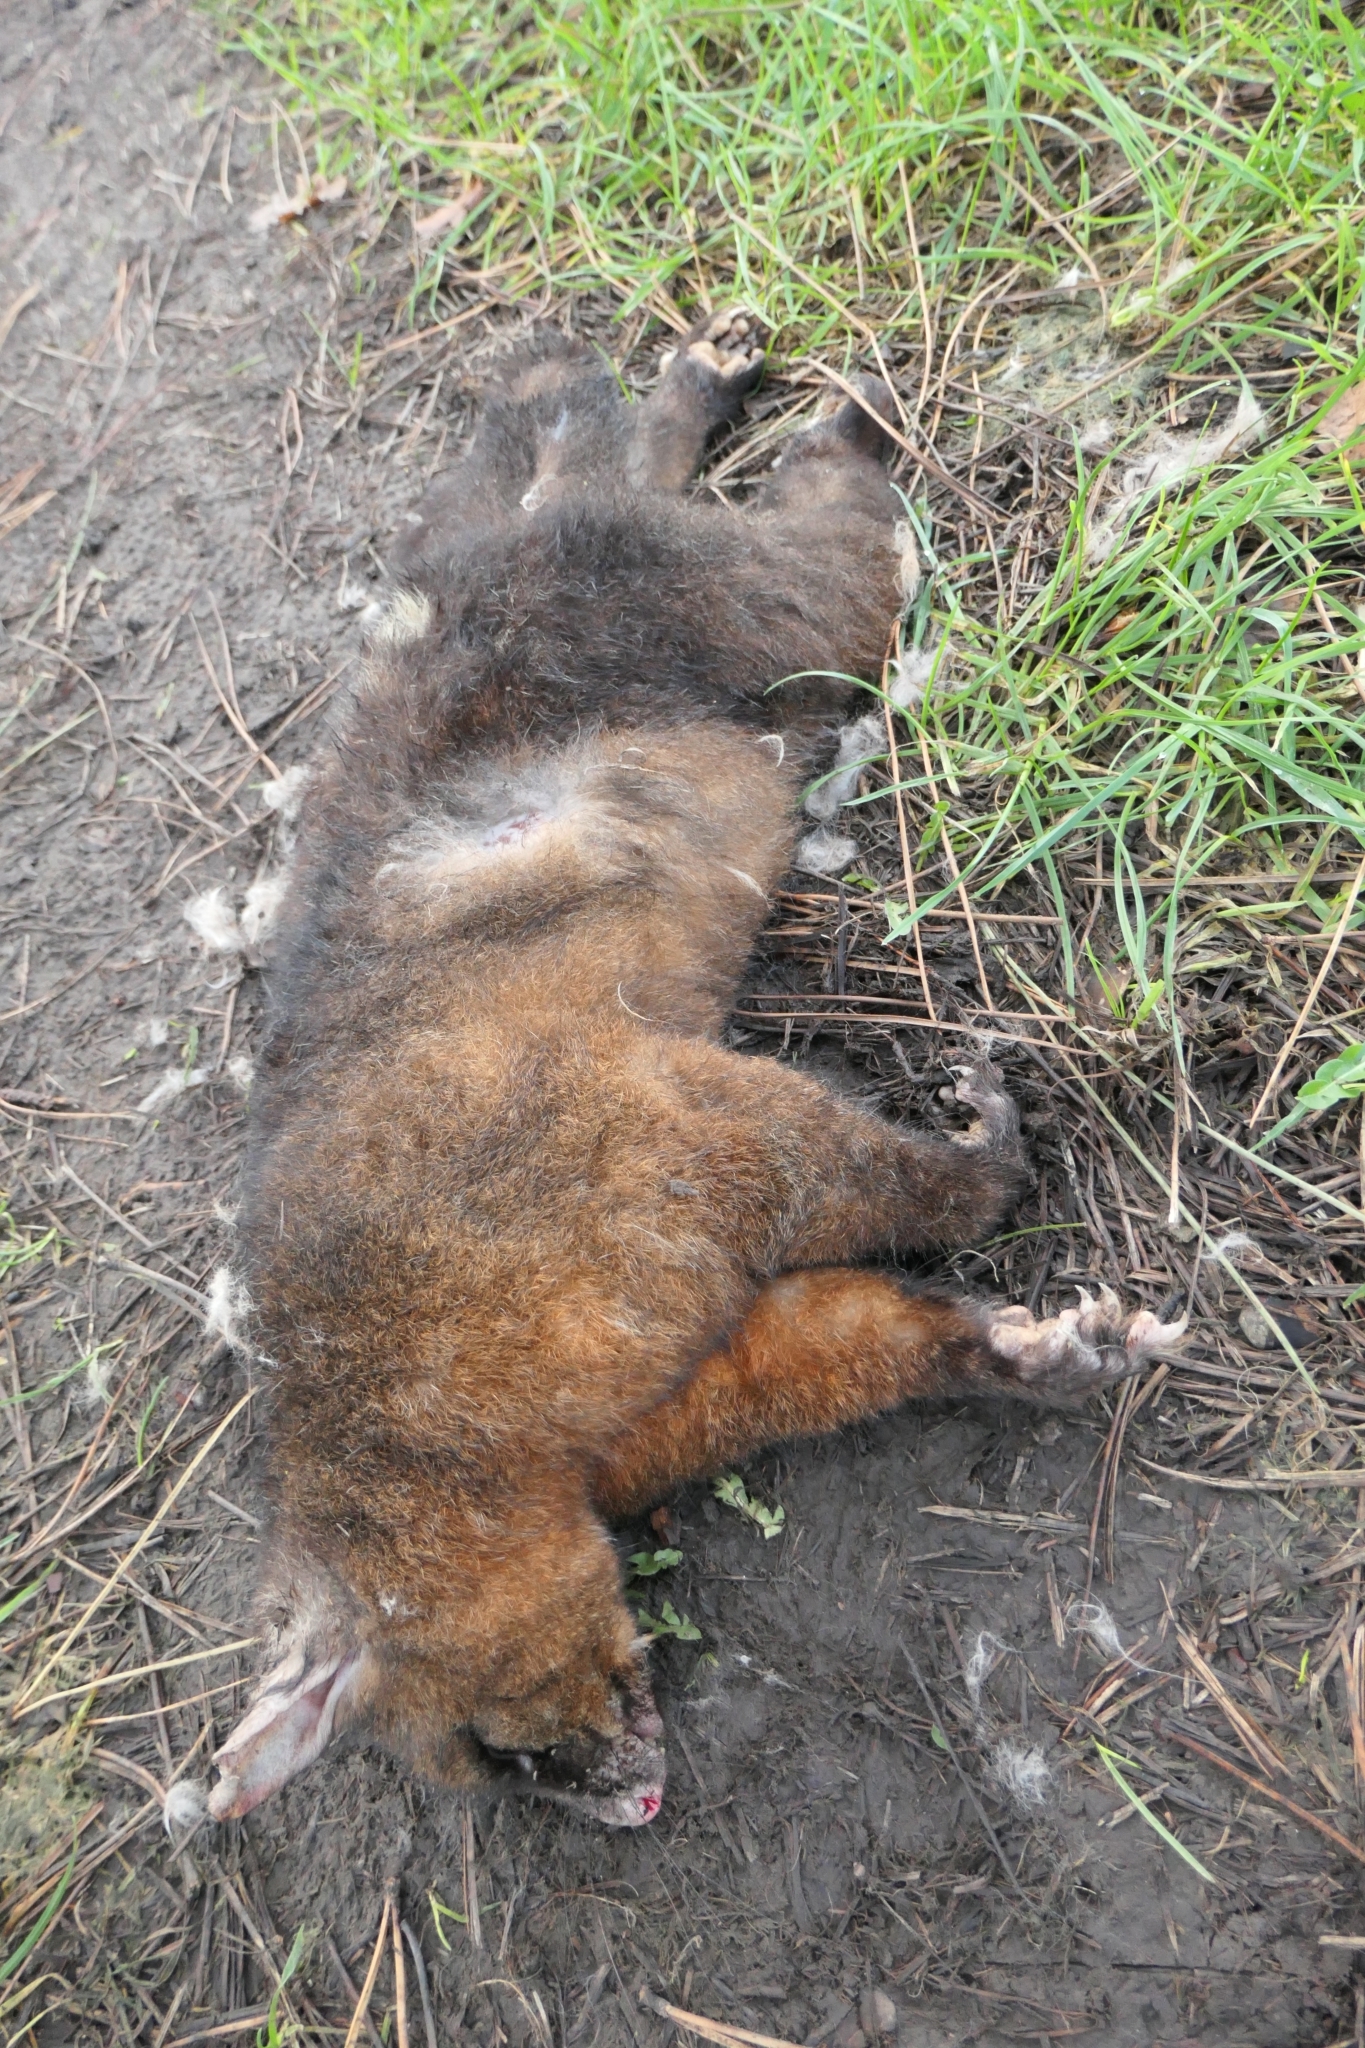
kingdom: Animalia
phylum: Chordata
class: Mammalia
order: Diprotodontia
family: Phalangeridae
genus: Trichosurus
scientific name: Trichosurus vulpecula
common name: Common brushtail
